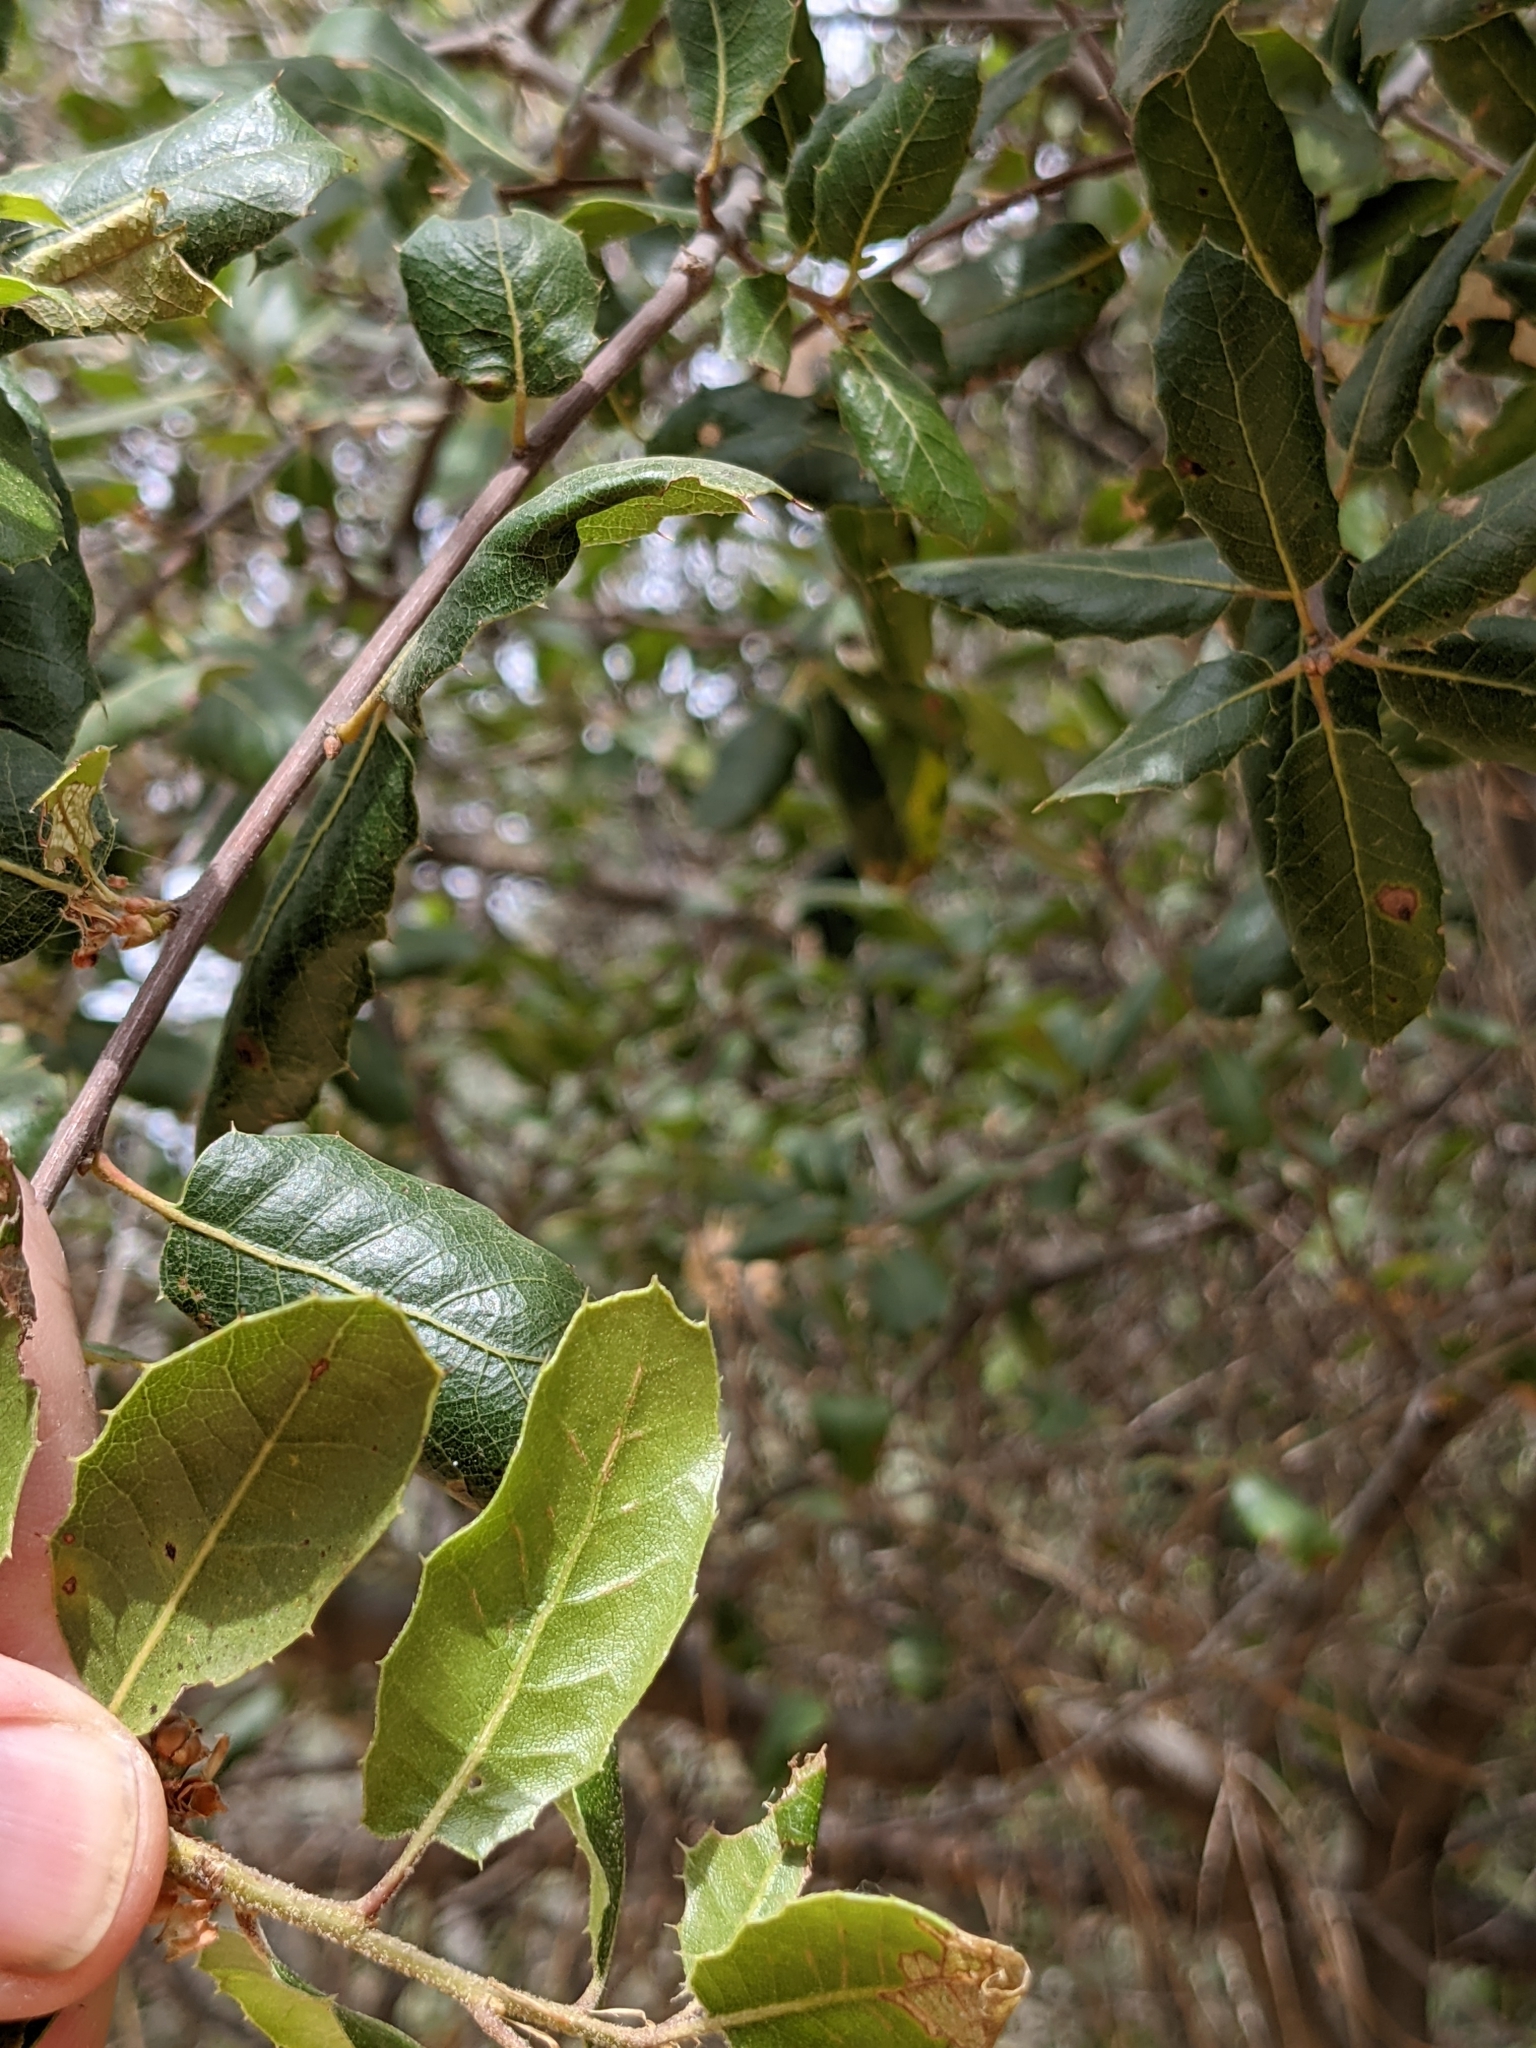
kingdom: Plantae
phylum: Tracheophyta
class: Magnoliopsida
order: Fagales
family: Fagaceae
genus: Quercus
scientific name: Quercus wislizeni
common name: Interior live oak
